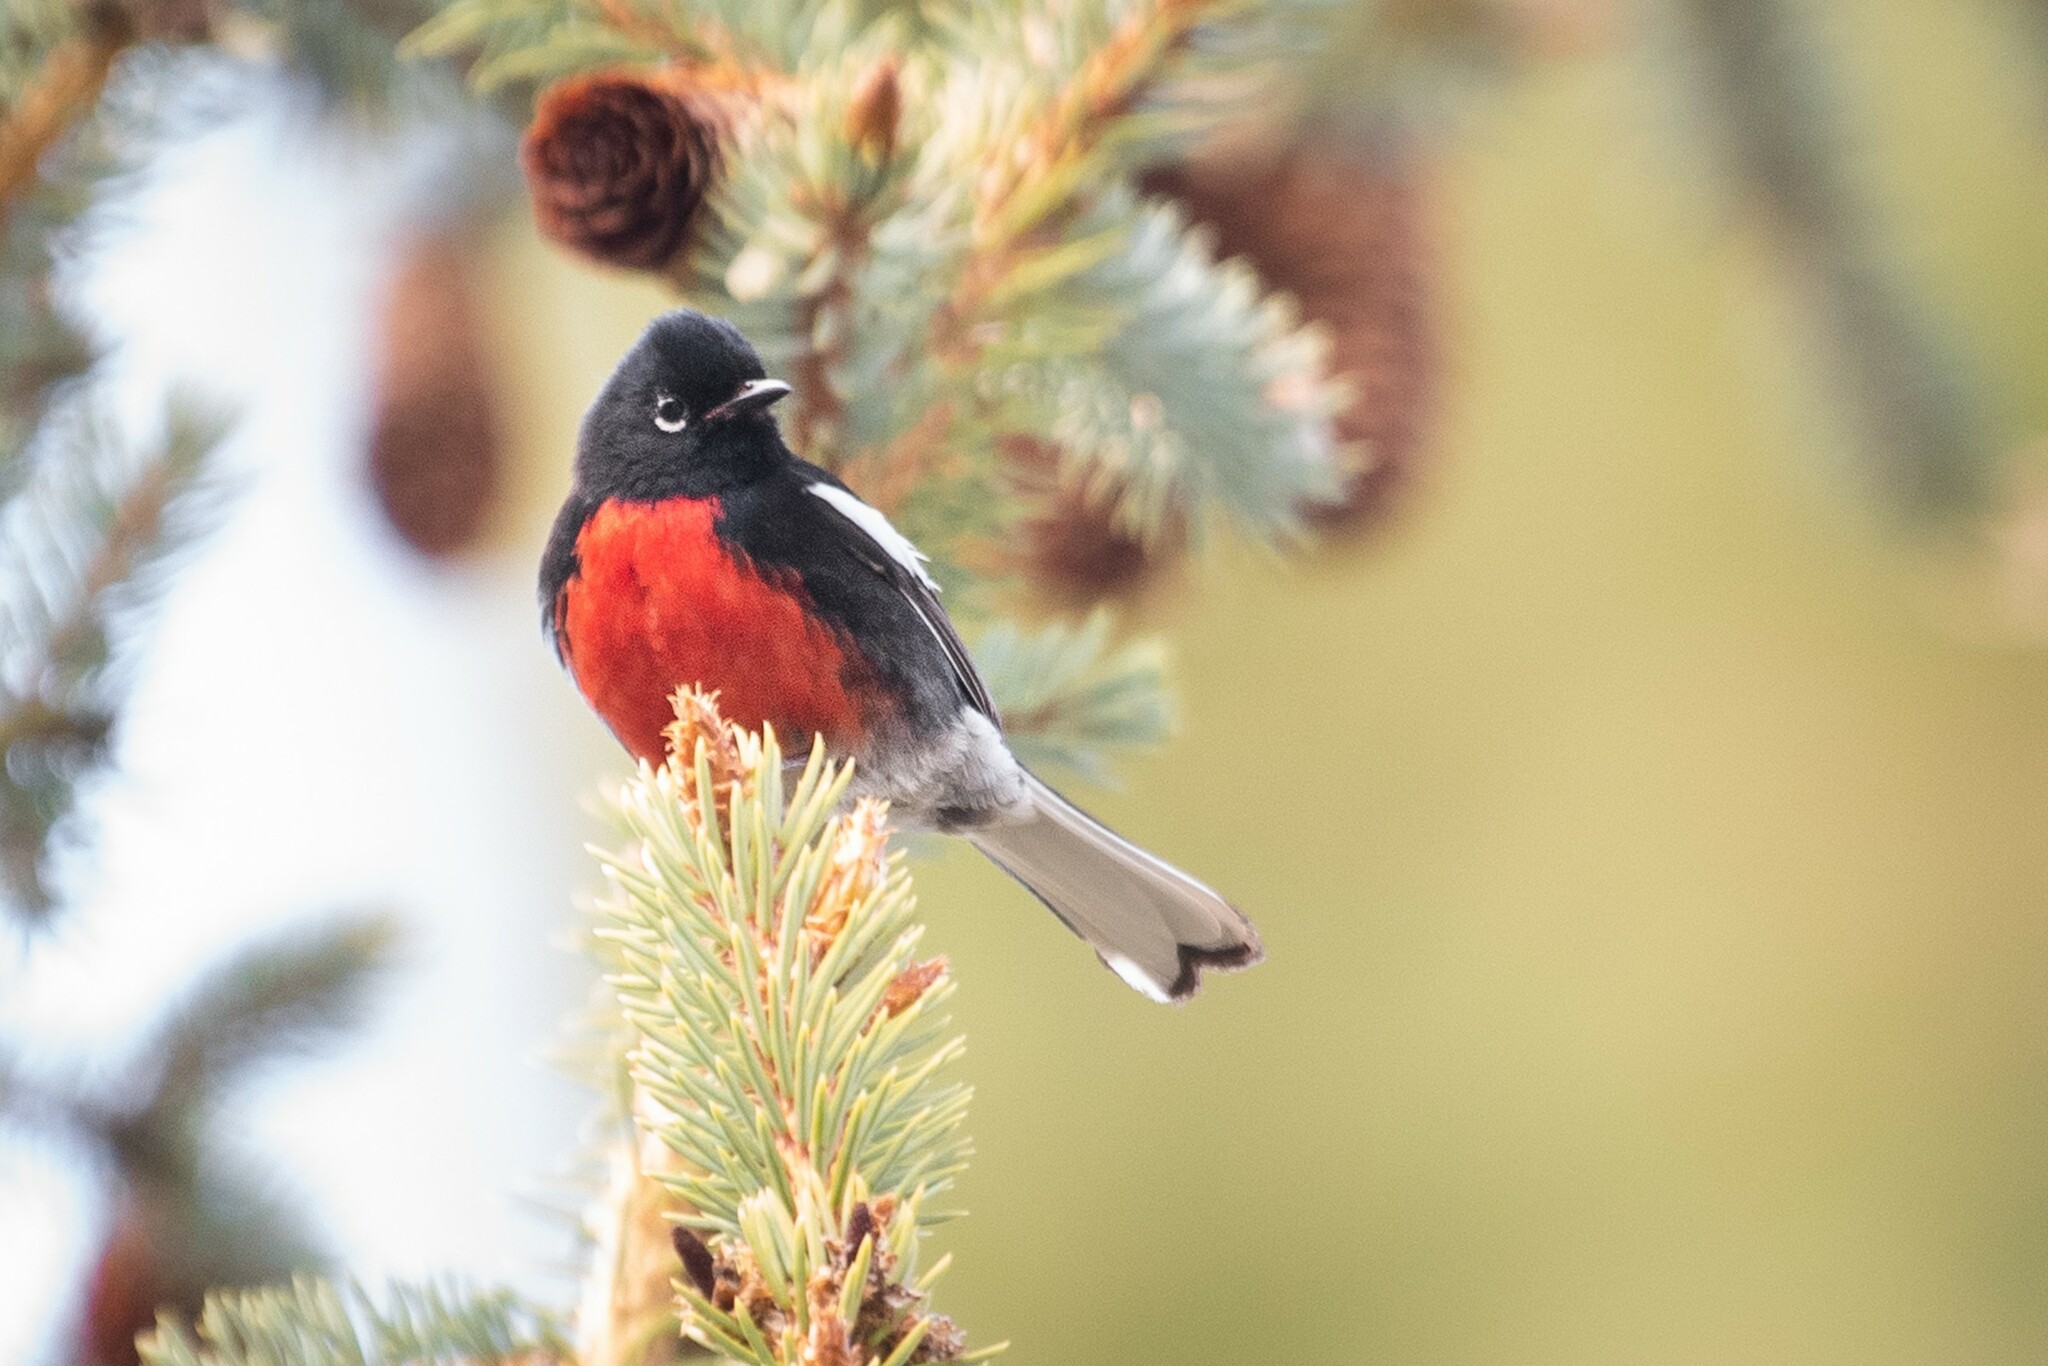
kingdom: Animalia
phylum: Chordata
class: Aves
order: Passeriformes
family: Parulidae
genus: Myioborus
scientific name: Myioborus pictus
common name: Painted whitestart
